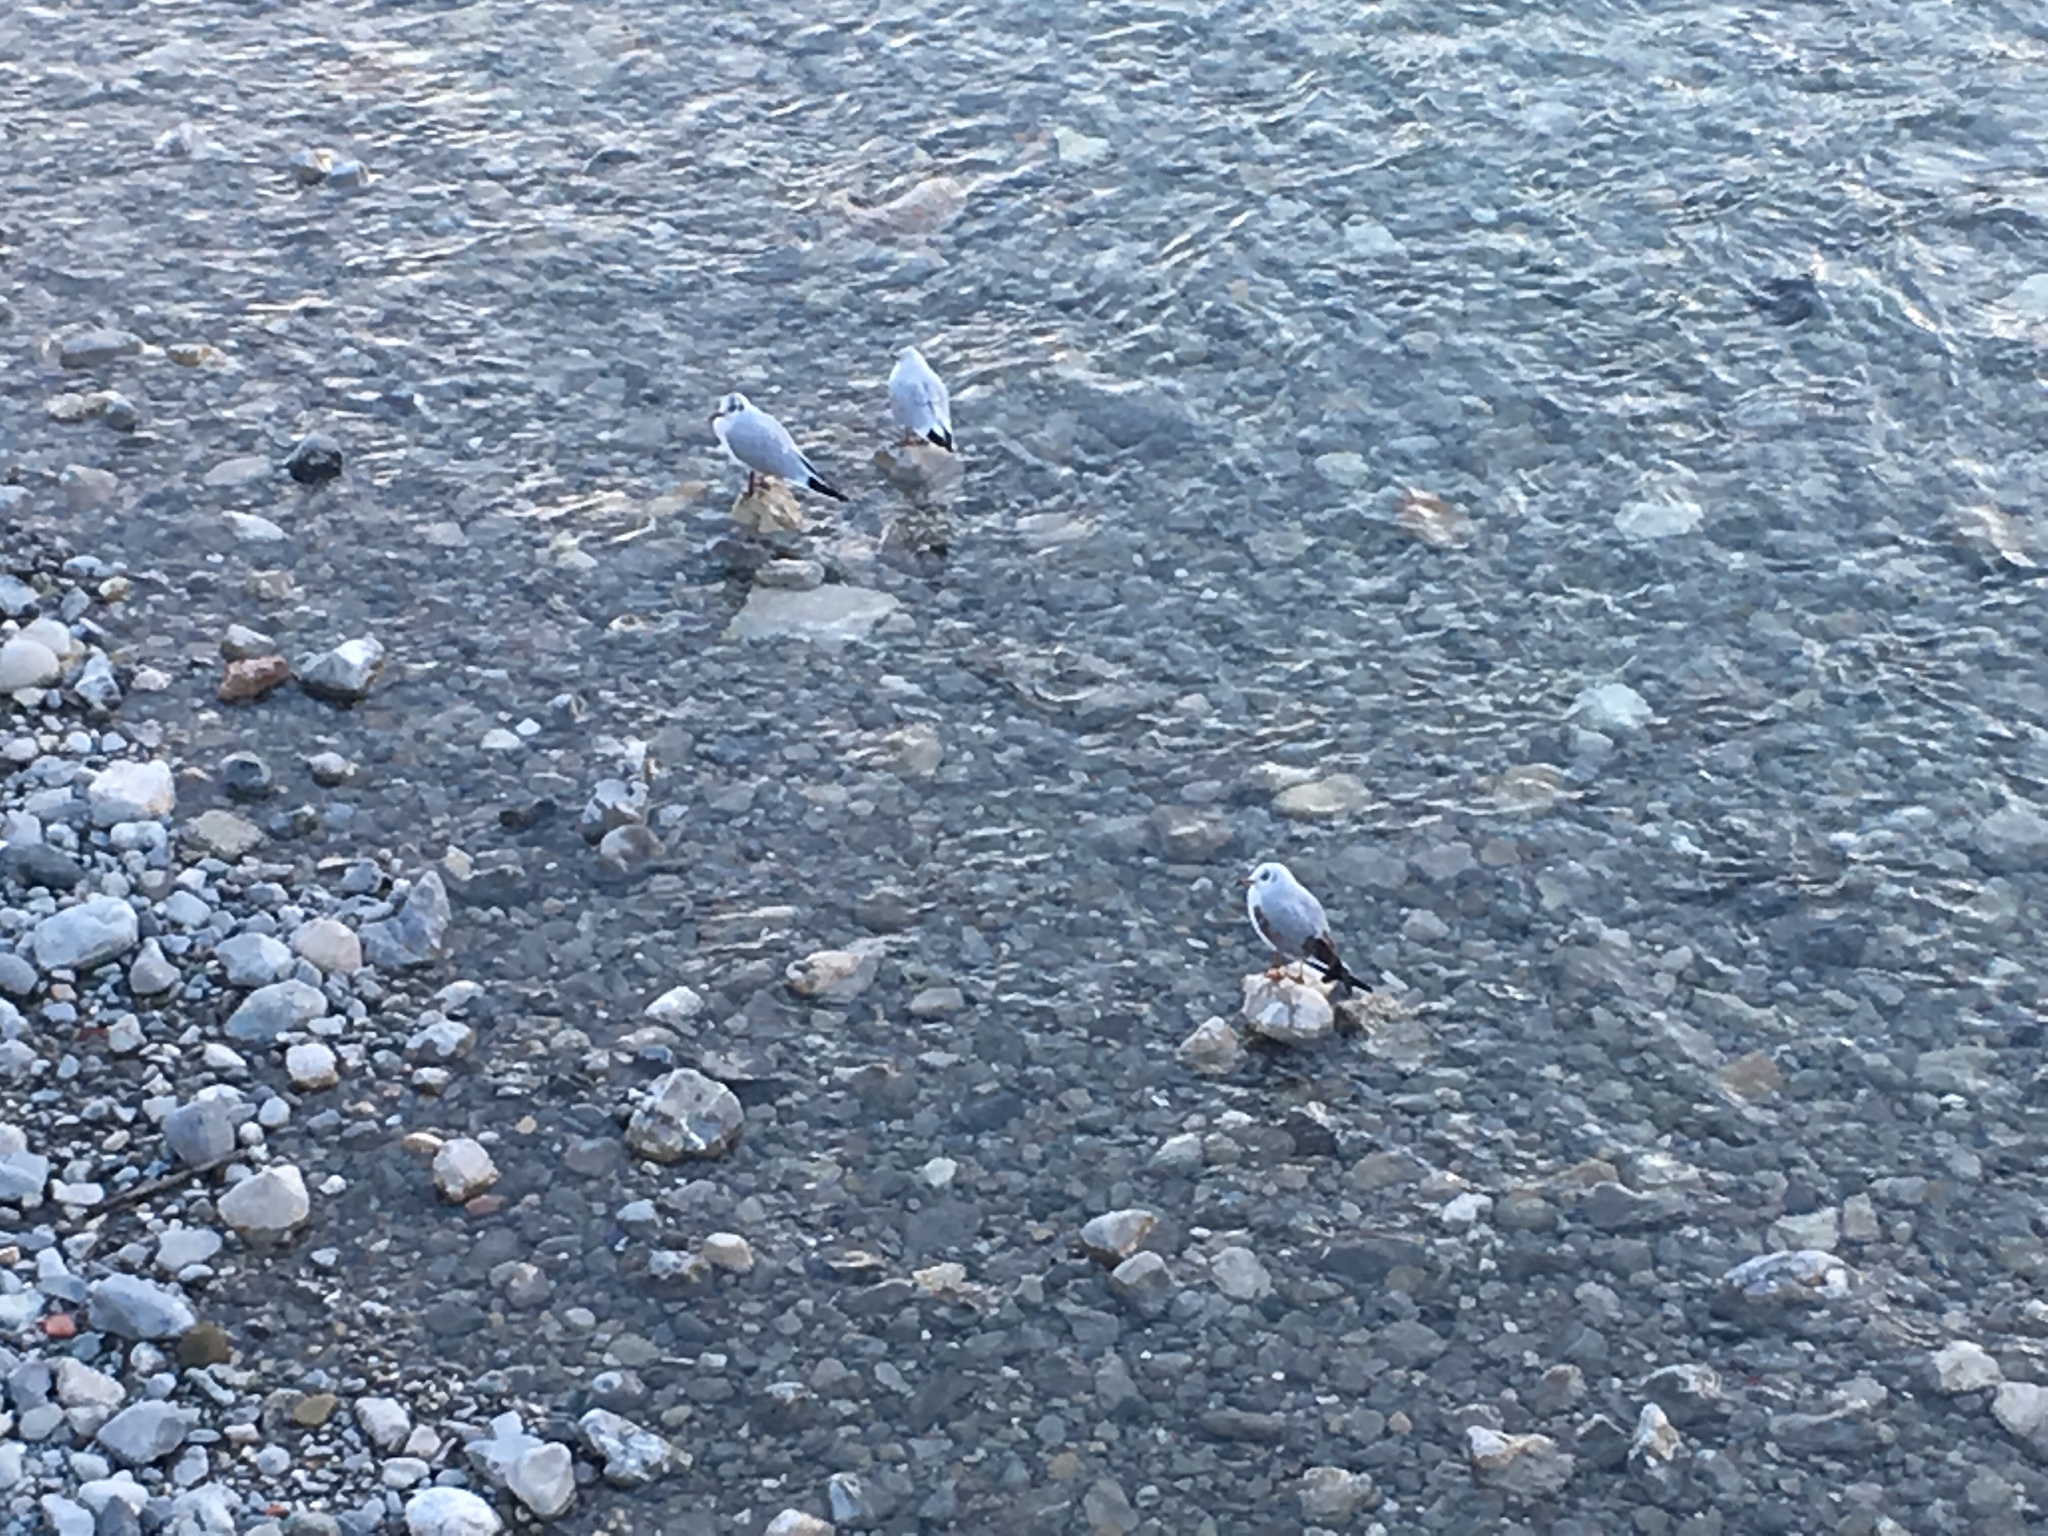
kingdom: Animalia
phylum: Chordata
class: Aves
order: Charadriiformes
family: Laridae
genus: Chroicocephalus
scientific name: Chroicocephalus ridibundus
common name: Black-headed gull
